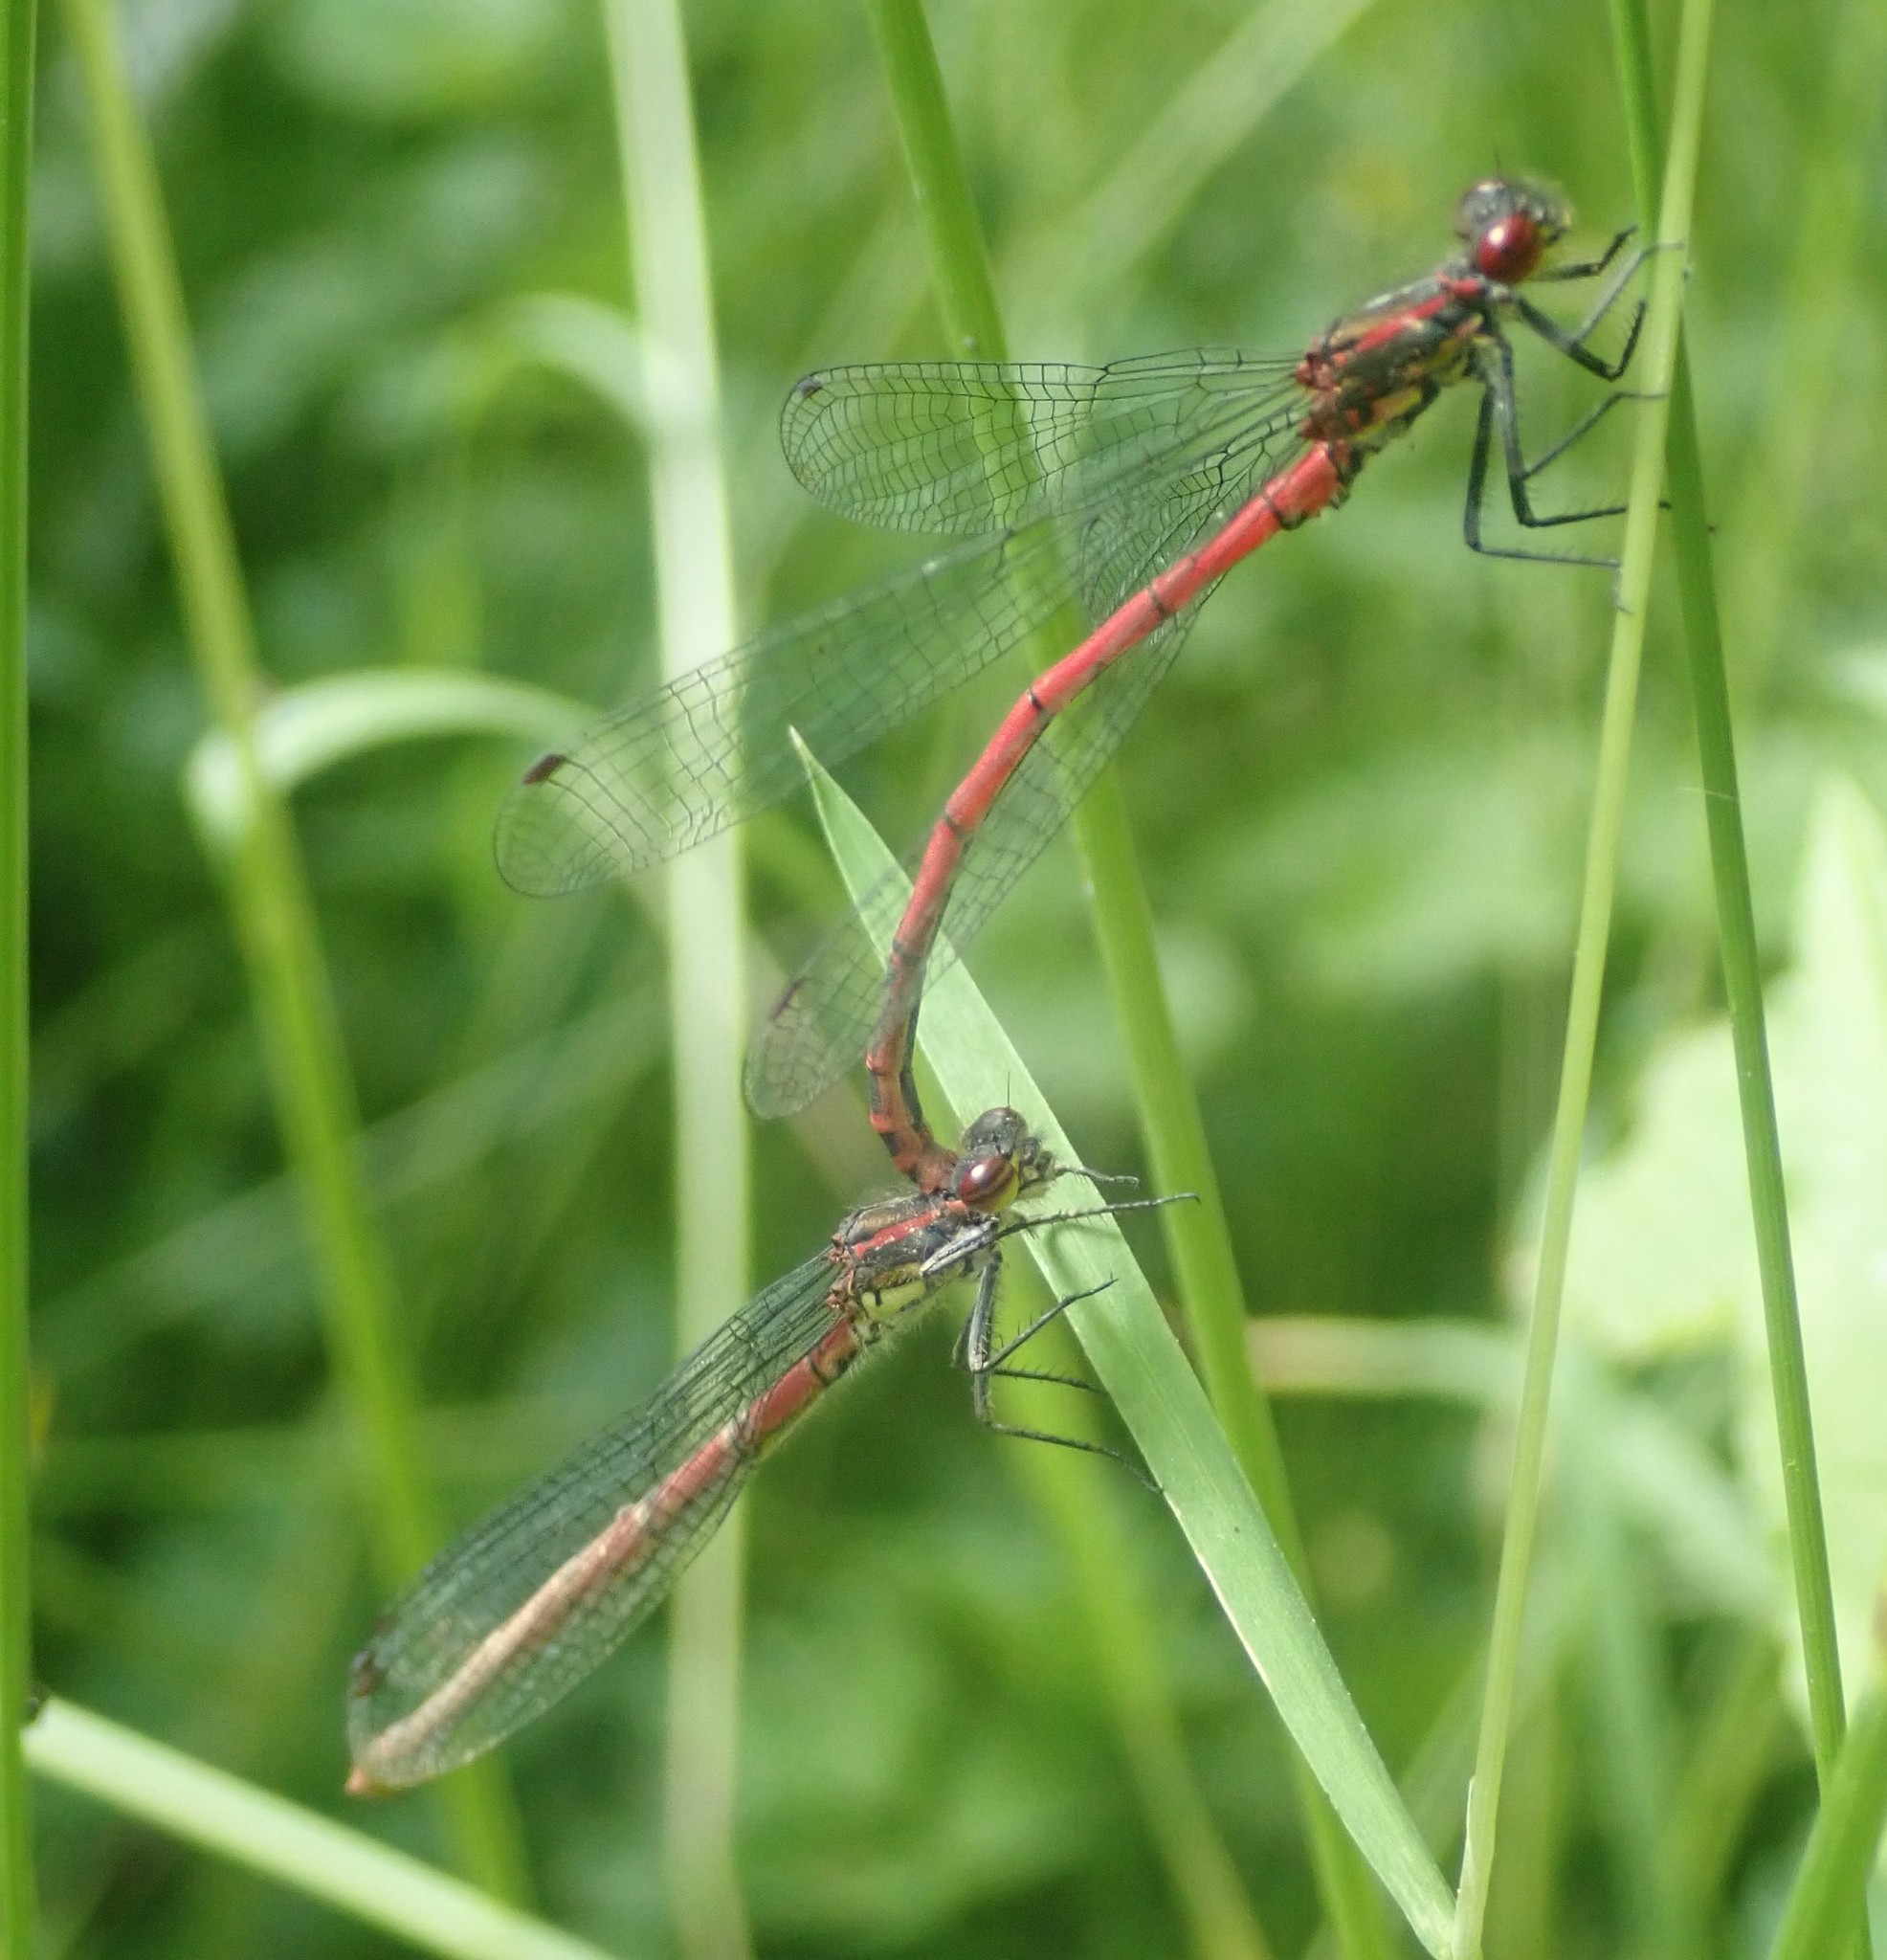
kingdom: Animalia
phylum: Arthropoda
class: Insecta
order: Odonata
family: Coenagrionidae
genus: Pyrrhosoma
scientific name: Pyrrhosoma nymphula
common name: Large red damsel
